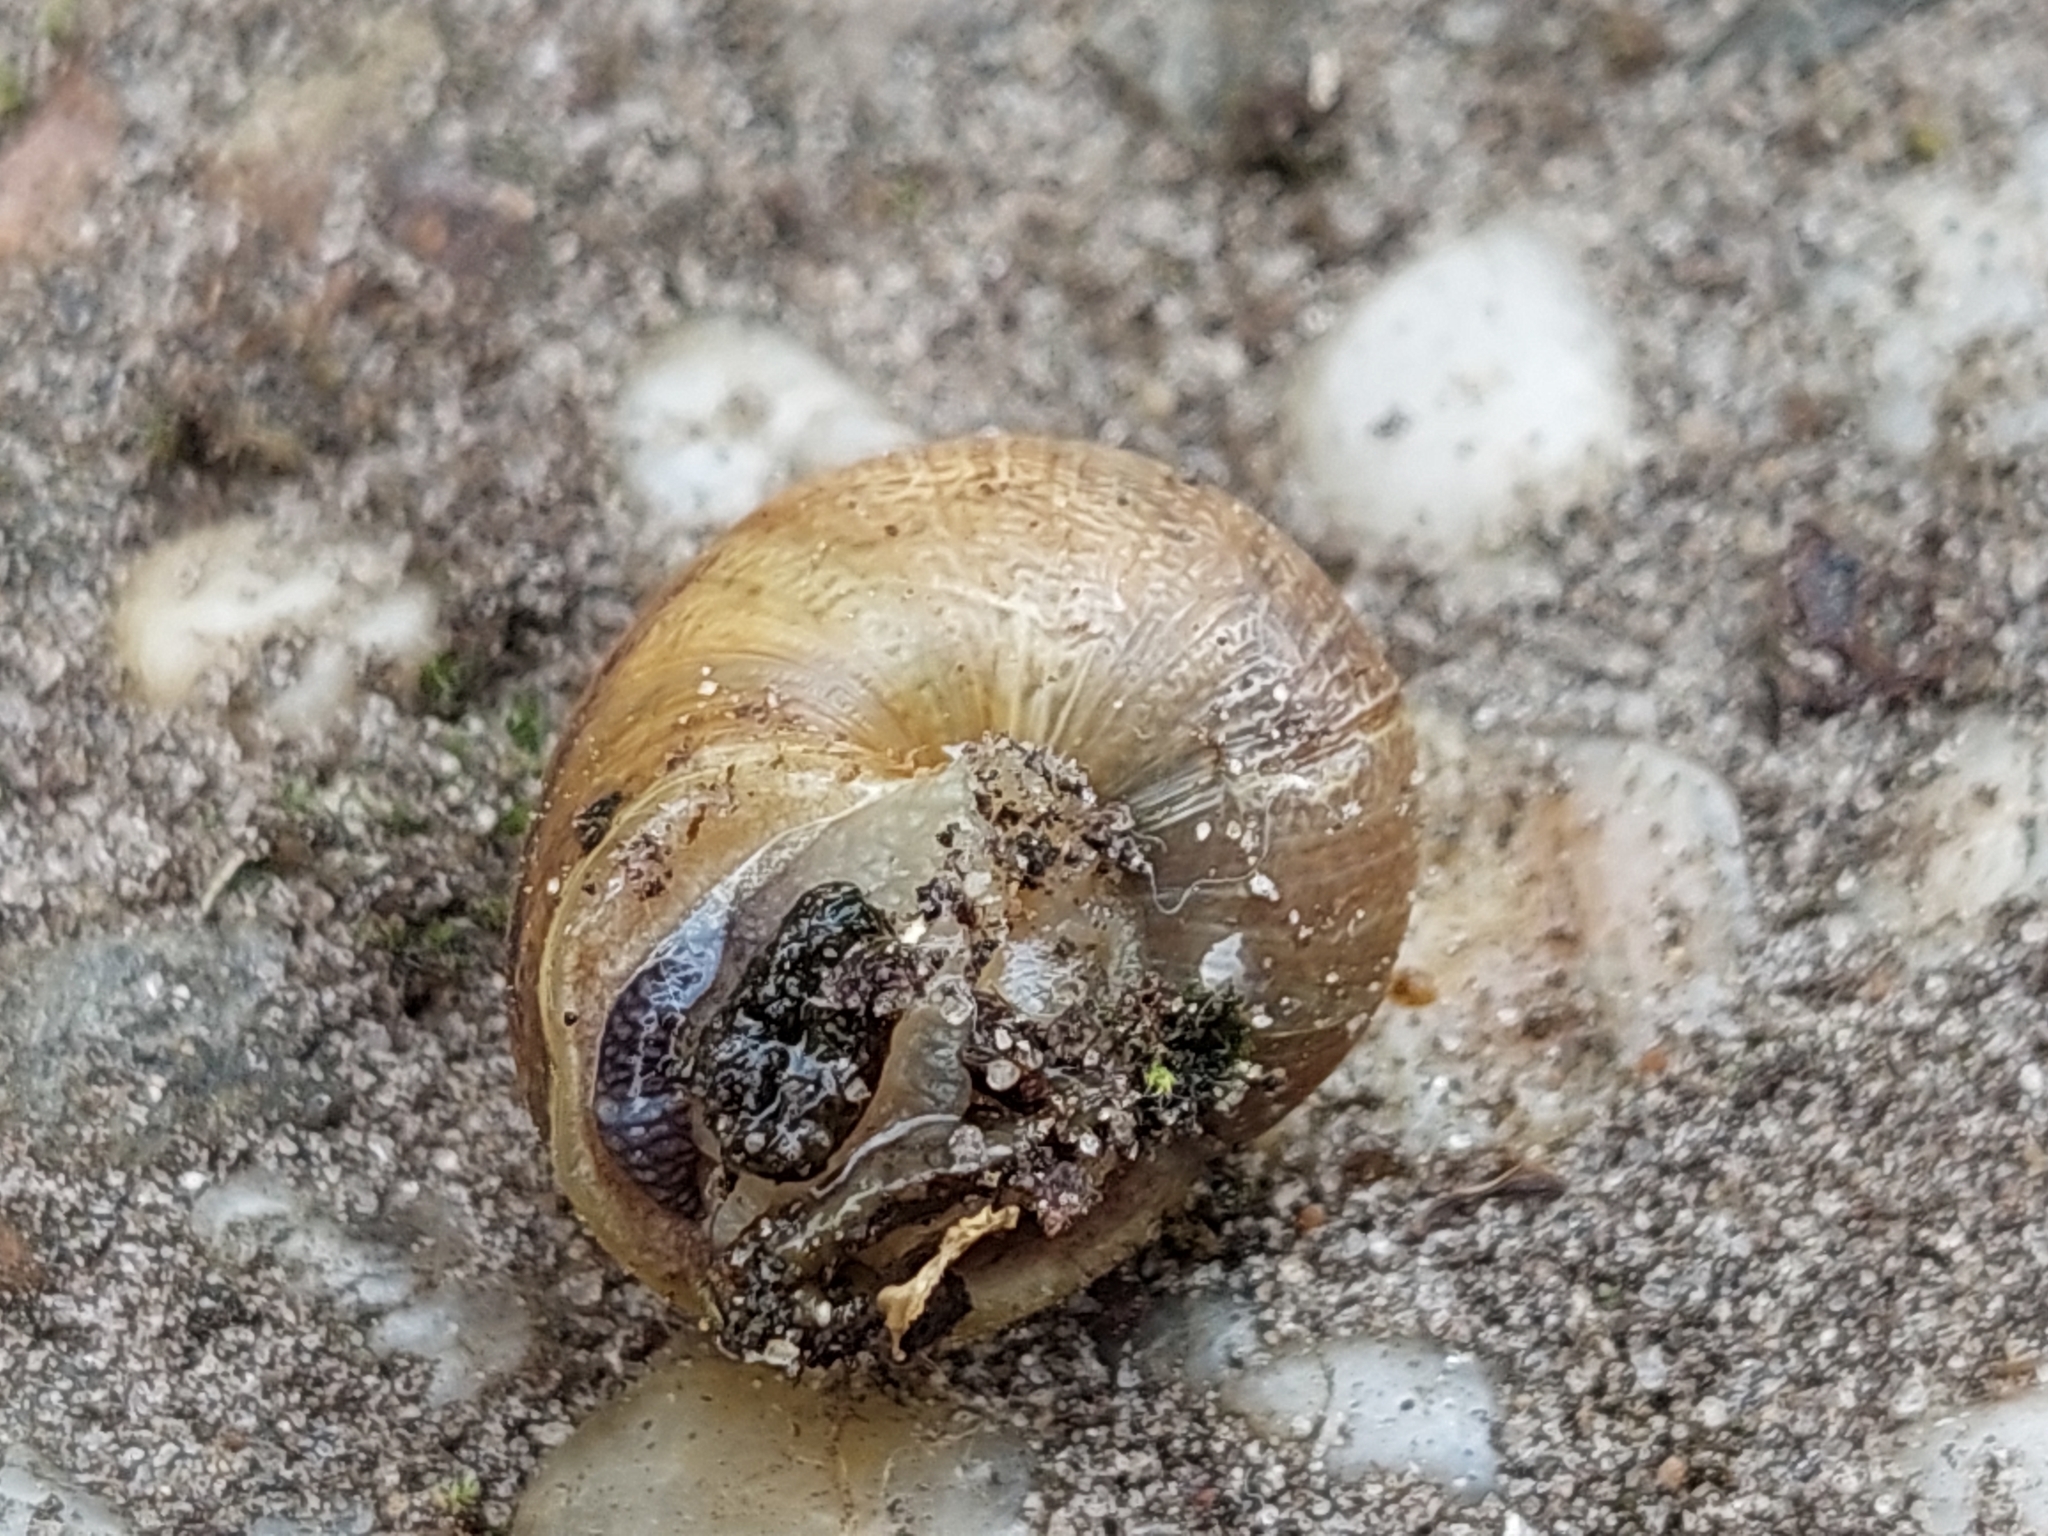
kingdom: Animalia
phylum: Mollusca
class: Gastropoda
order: Stylommatophora
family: Helicidae
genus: Cornu
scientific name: Cornu aspersum
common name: Brown garden snail
